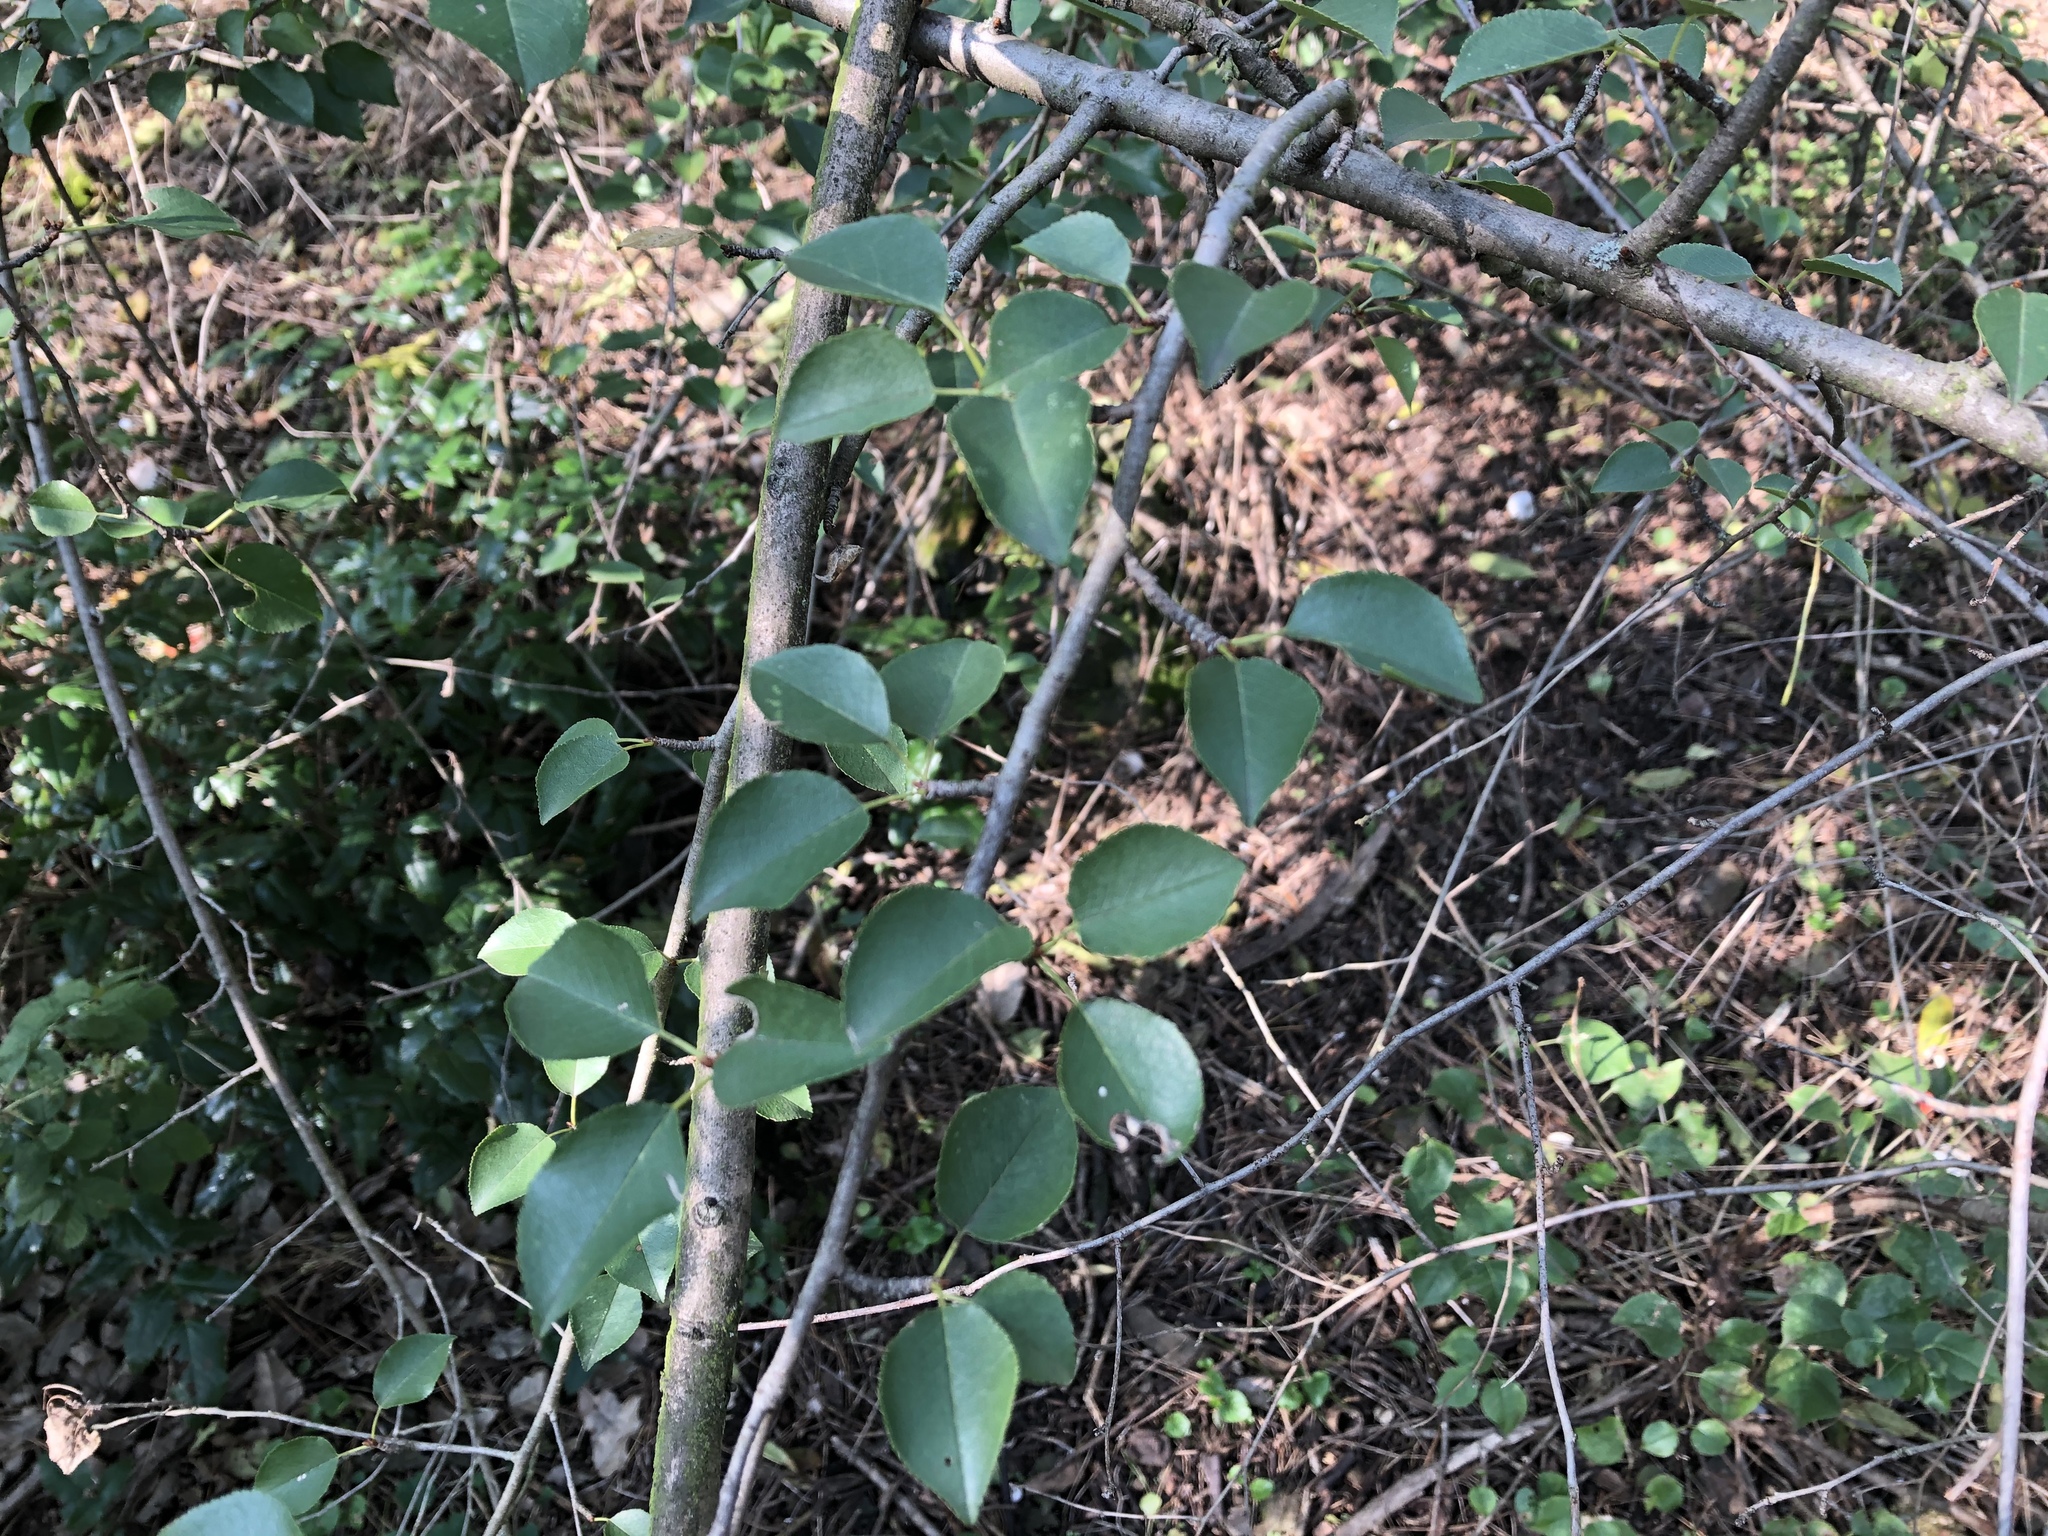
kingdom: Plantae
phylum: Tracheophyta
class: Magnoliopsida
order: Rosales
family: Rosaceae
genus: Prunus
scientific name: Prunus mahaleb
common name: Mahaleb cherry
